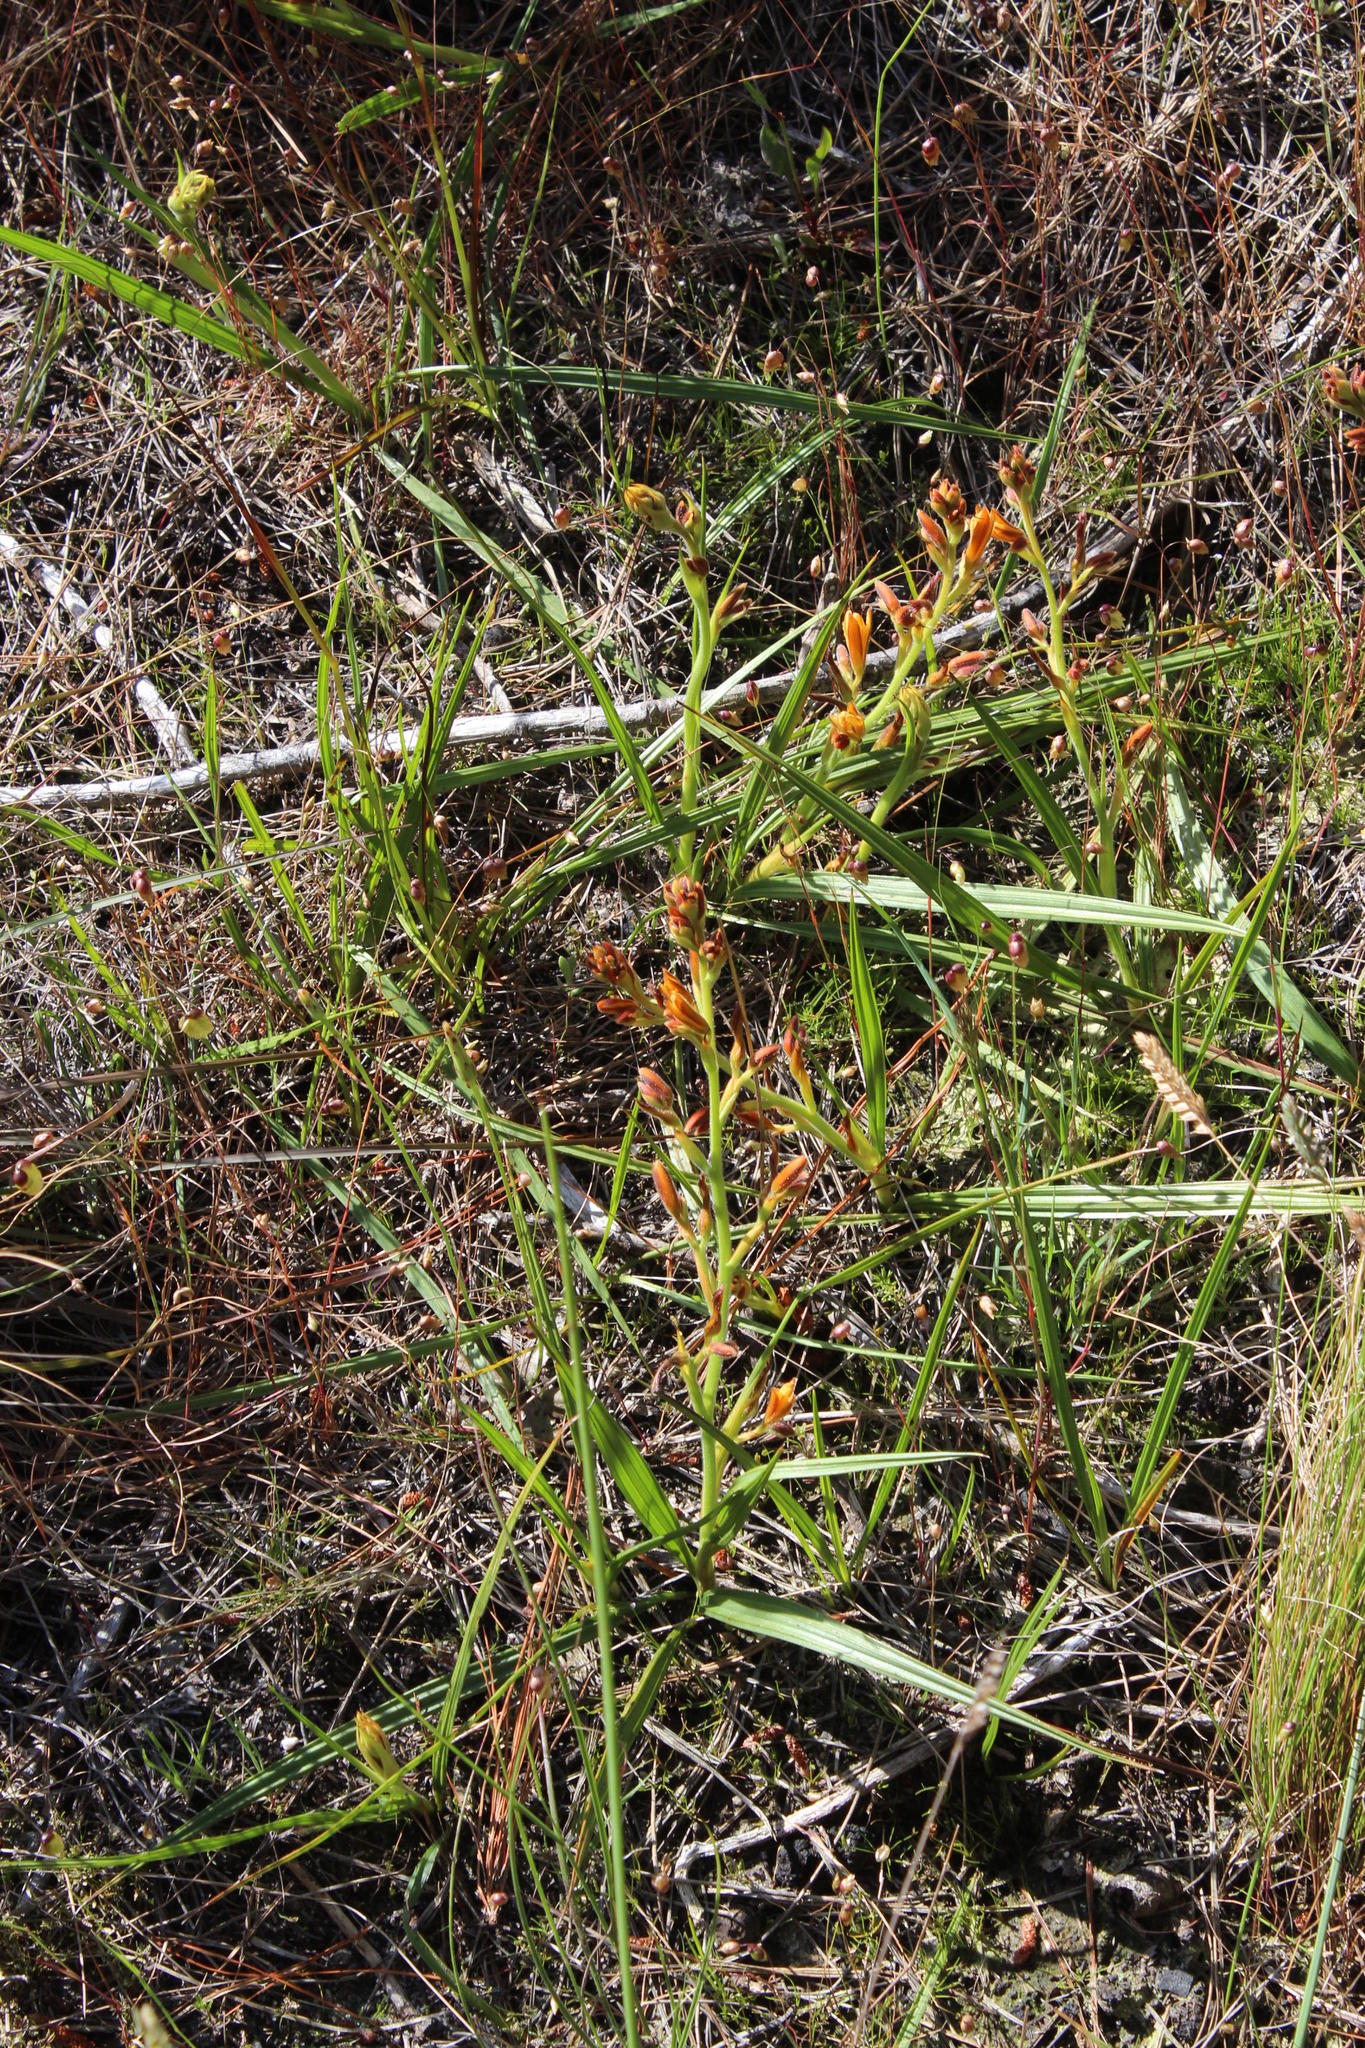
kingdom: Plantae
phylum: Tracheophyta
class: Liliopsida
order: Commelinales
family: Haemodoraceae
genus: Wachendorfia
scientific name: Wachendorfia paniculata
